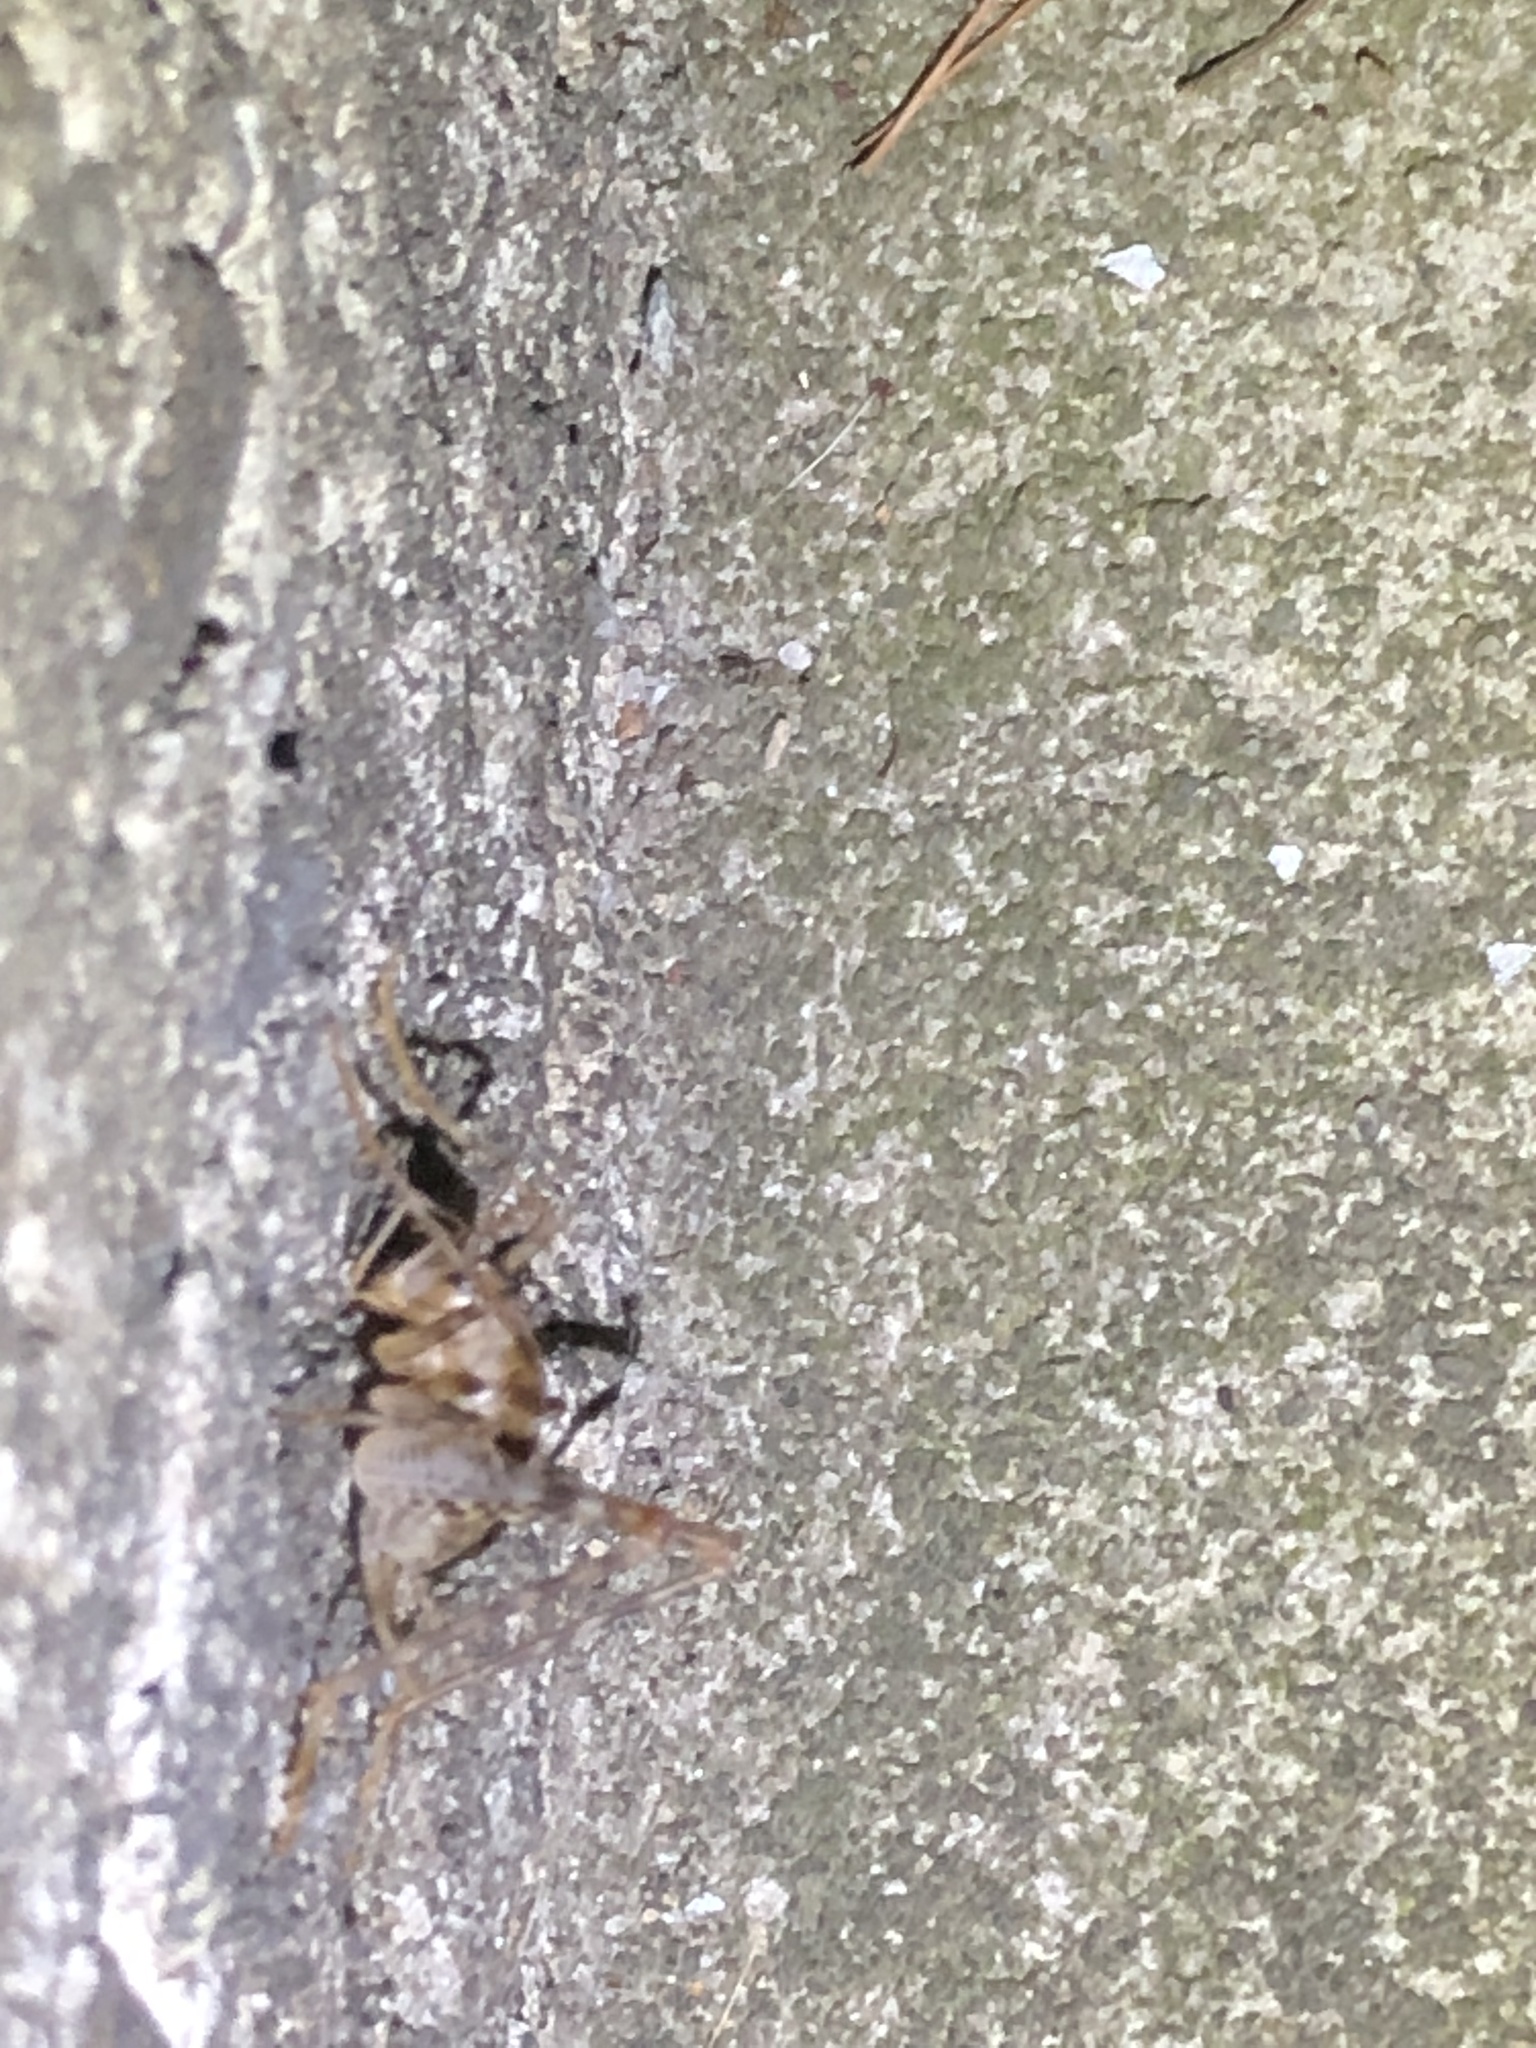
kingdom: Animalia
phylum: Arthropoda
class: Insecta
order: Orthoptera
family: Rhaphidophoridae
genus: Tachycines
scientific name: Tachycines asynamorus
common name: Greenhouse camel cricket
